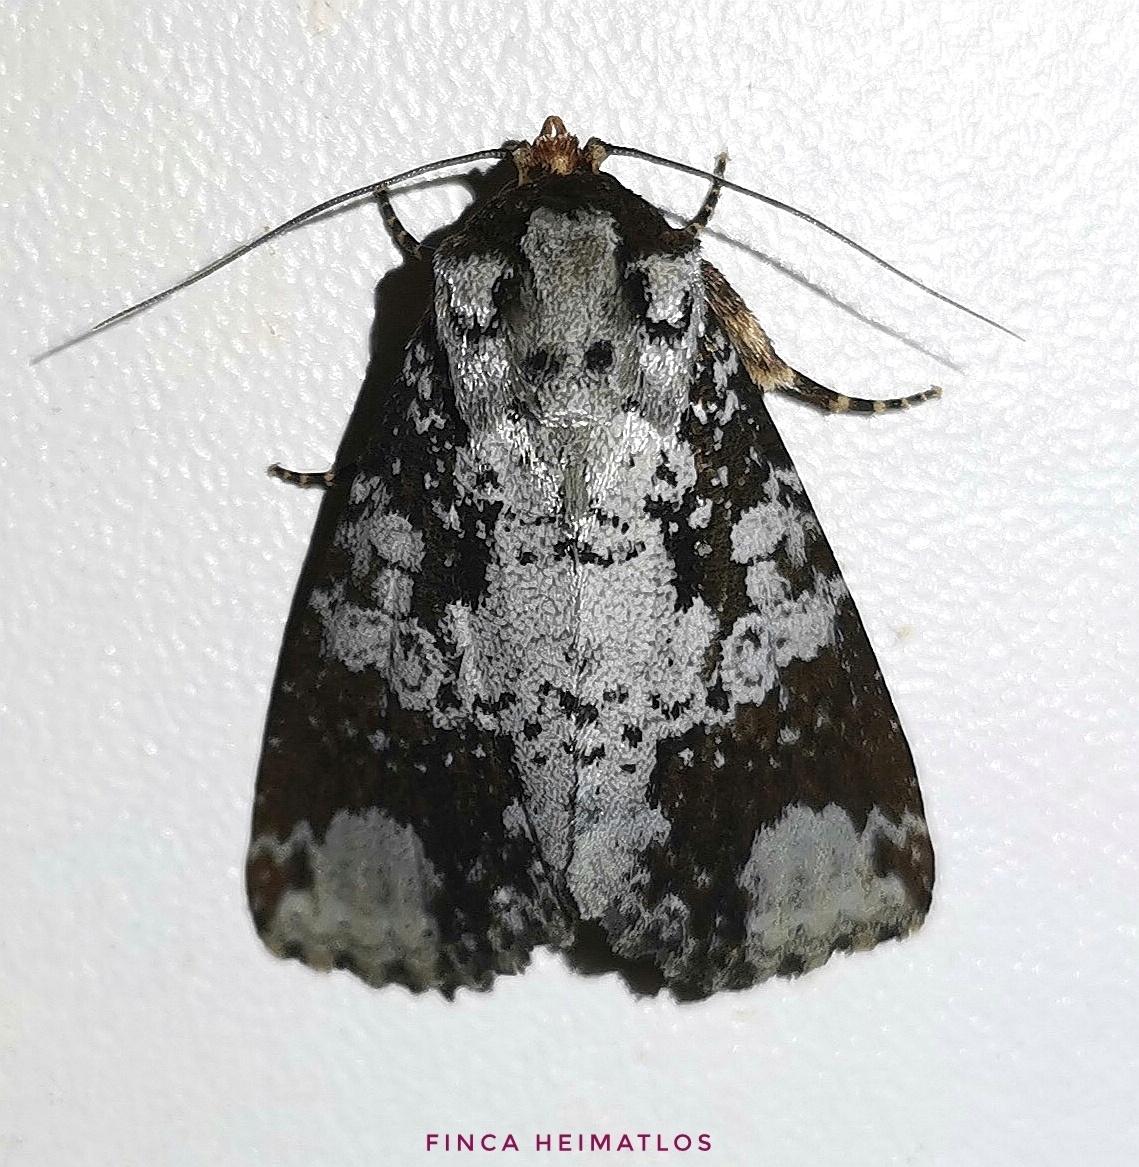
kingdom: Animalia
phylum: Arthropoda
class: Insecta
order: Lepidoptera
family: Noctuidae
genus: Condica
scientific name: Condica mimica
